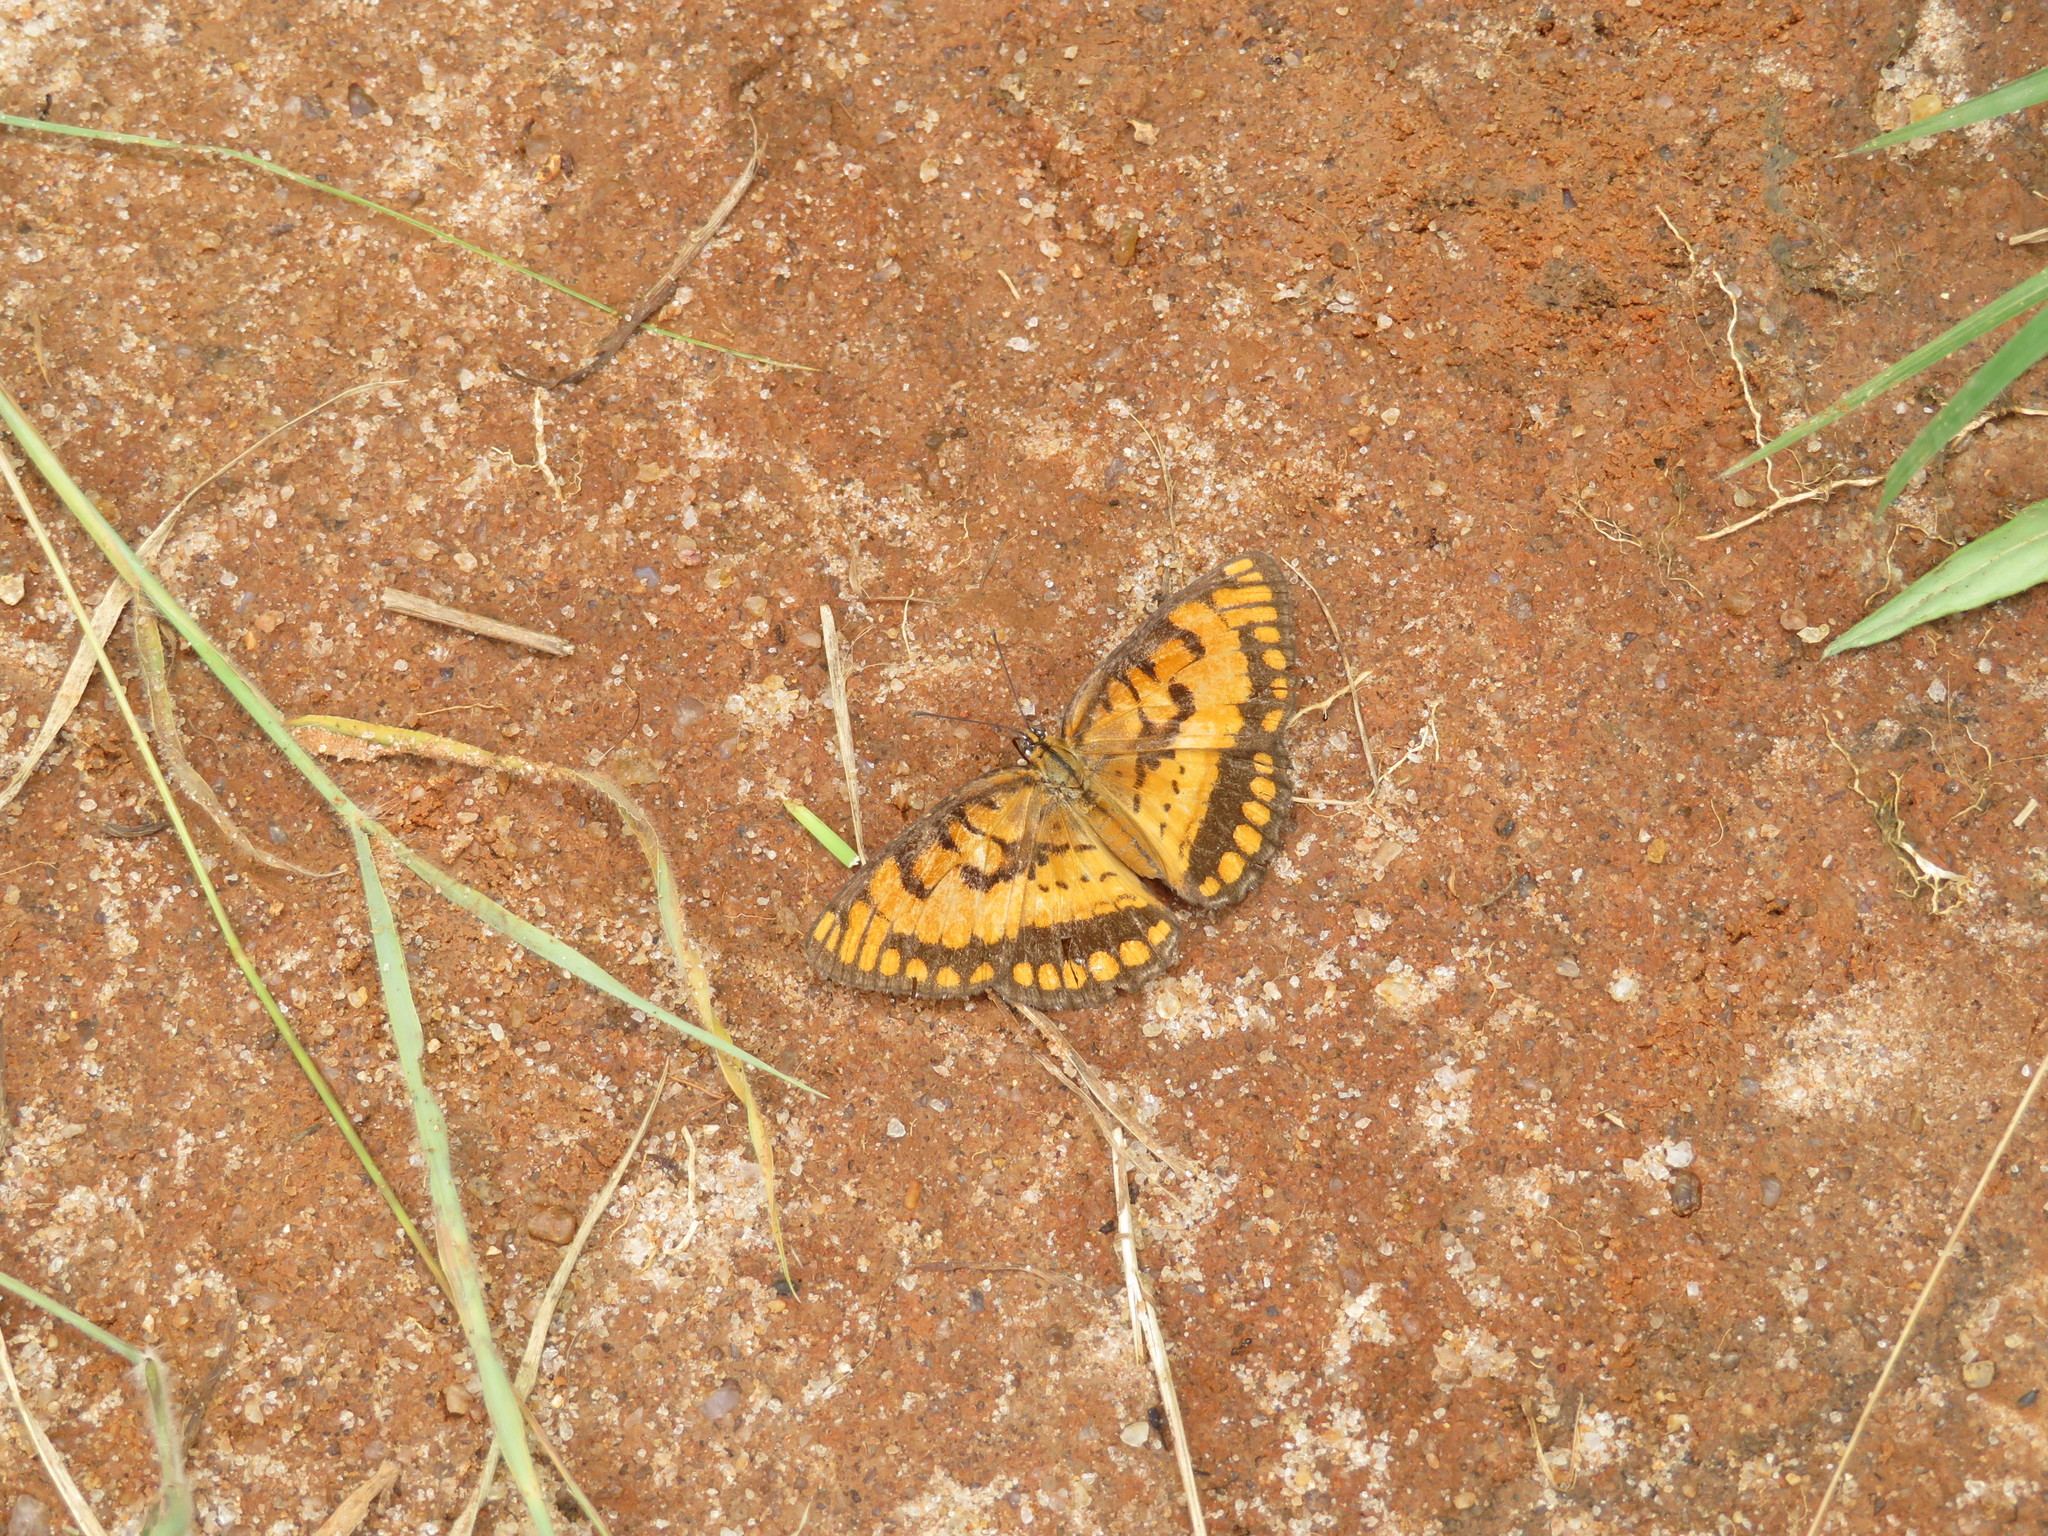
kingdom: Animalia
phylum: Arthropoda
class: Insecta
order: Lepidoptera
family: Nymphalidae
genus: Byblia
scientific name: Byblia ilithyia
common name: Spotted joker
